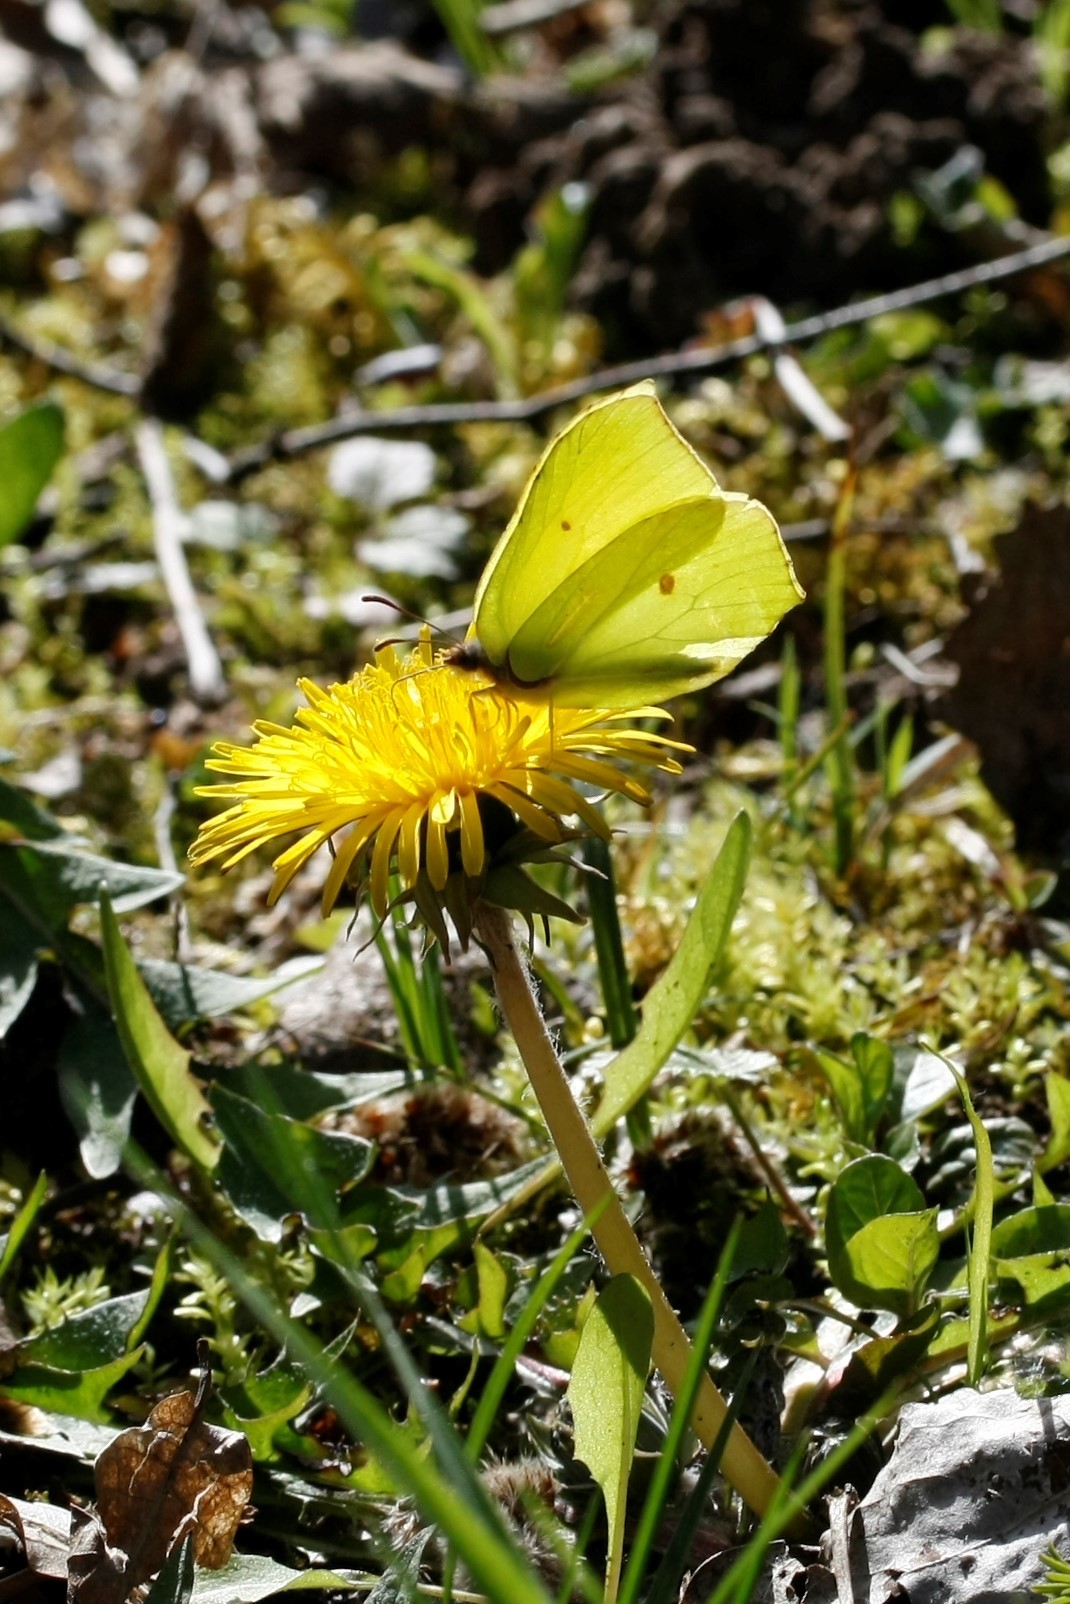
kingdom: Animalia
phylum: Arthropoda
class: Insecta
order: Lepidoptera
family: Pieridae
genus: Gonepteryx
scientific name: Gonepteryx rhamni
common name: Brimstone
